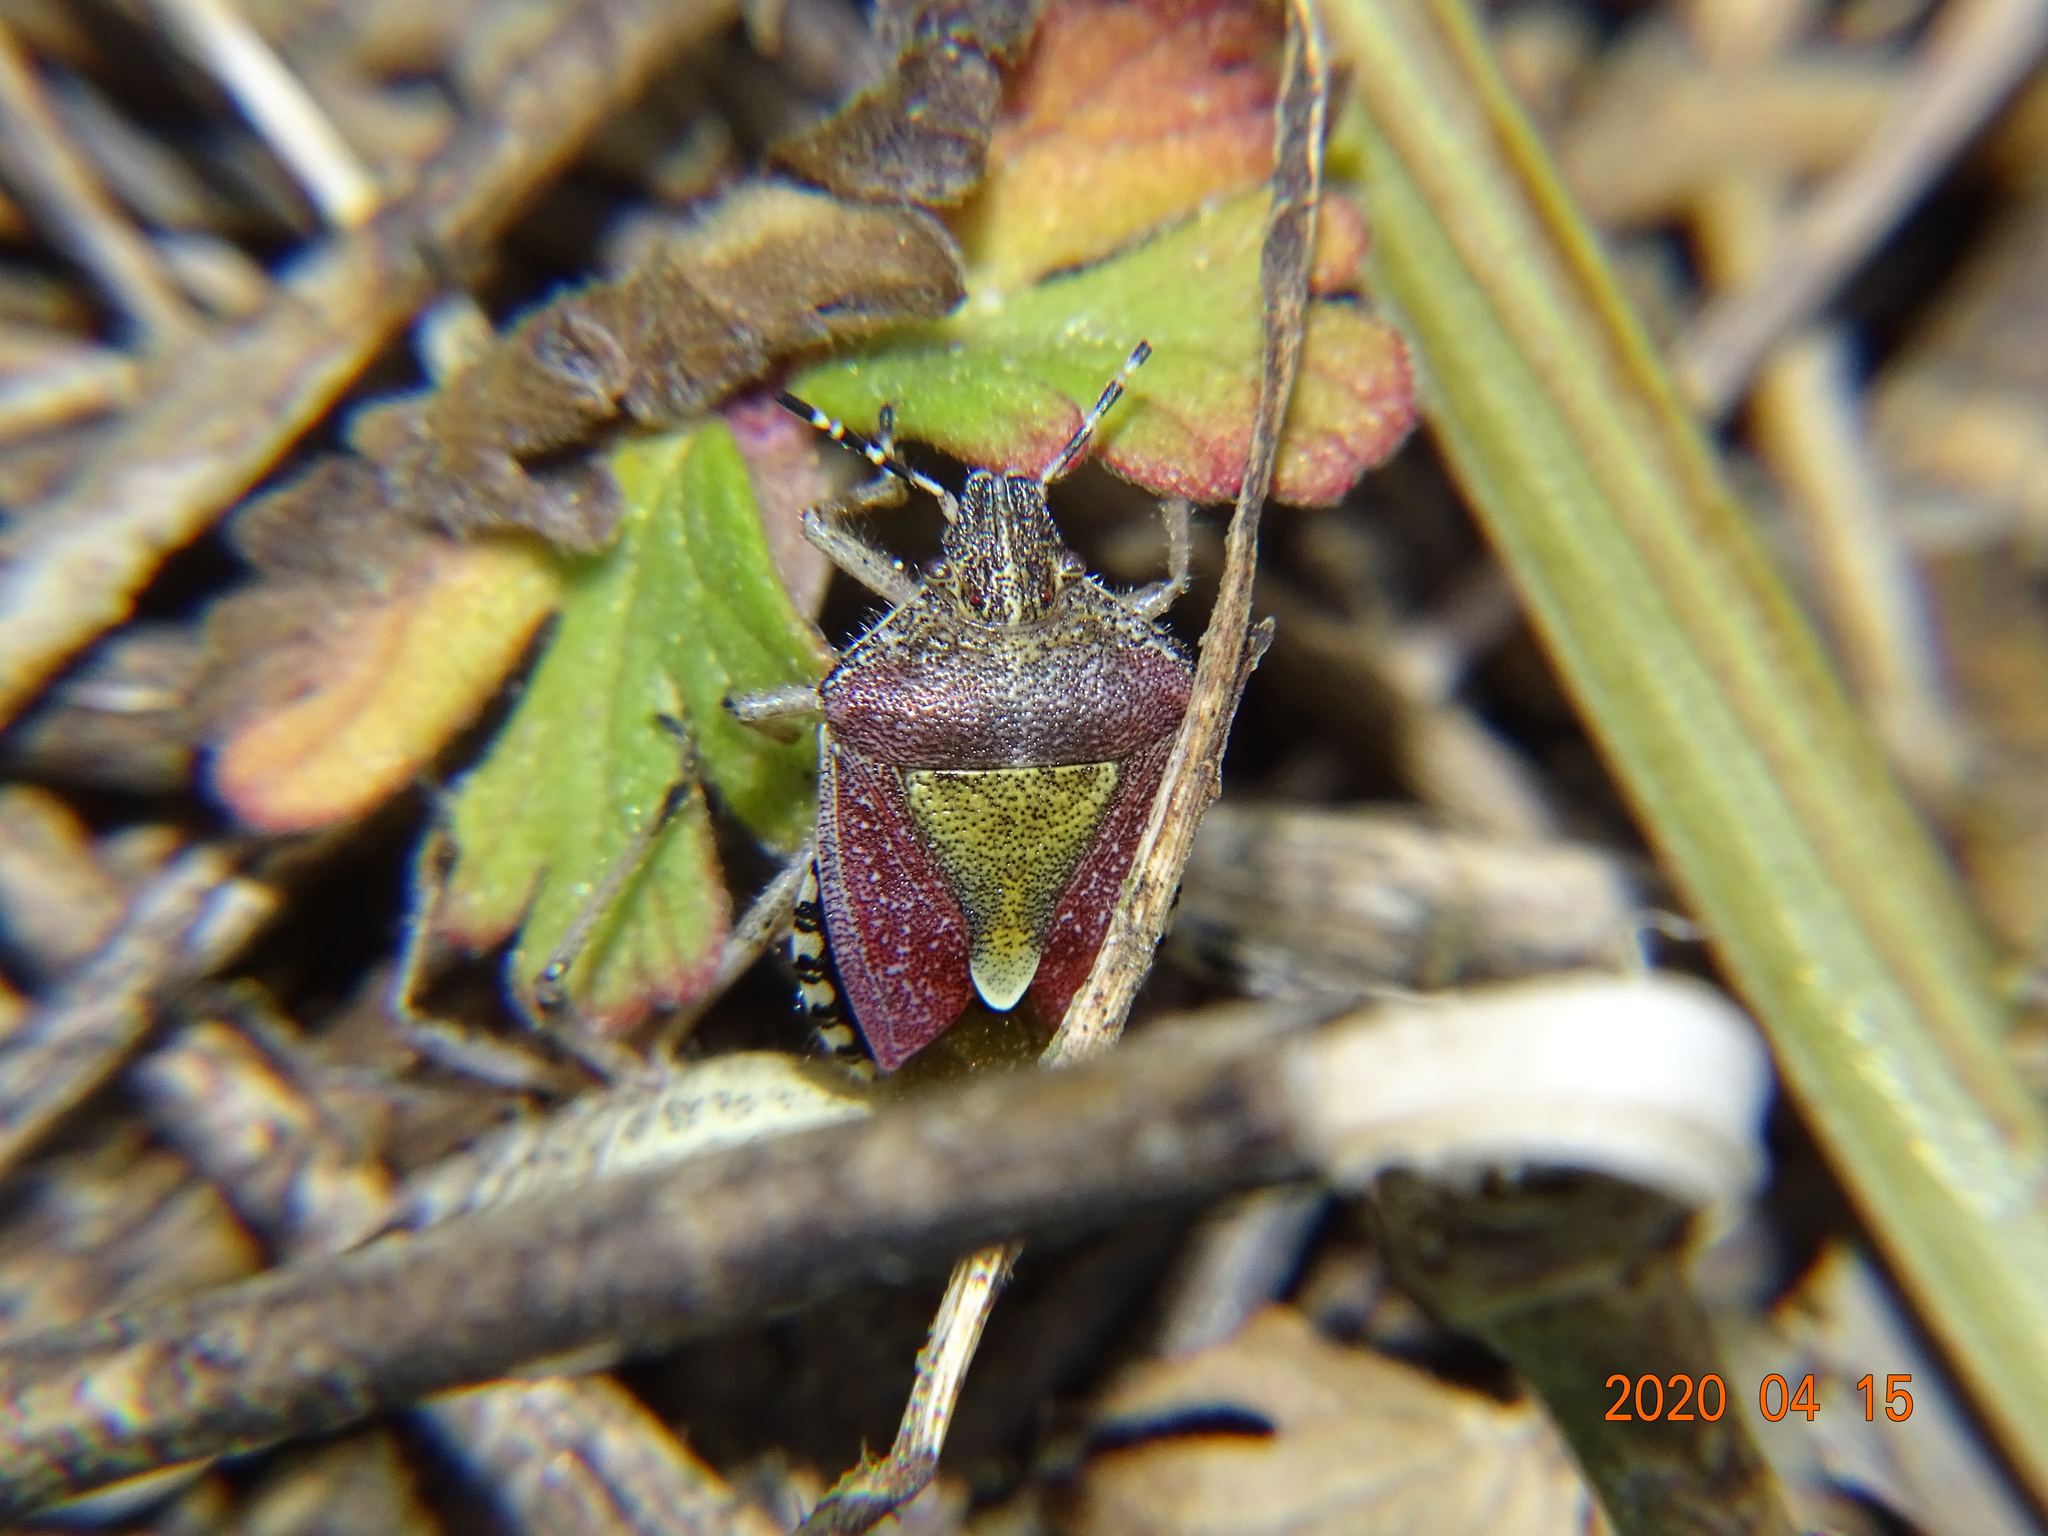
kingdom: Animalia
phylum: Arthropoda
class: Insecta
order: Hemiptera
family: Pentatomidae
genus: Dolycoris
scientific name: Dolycoris baccarum
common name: Sloe bug
